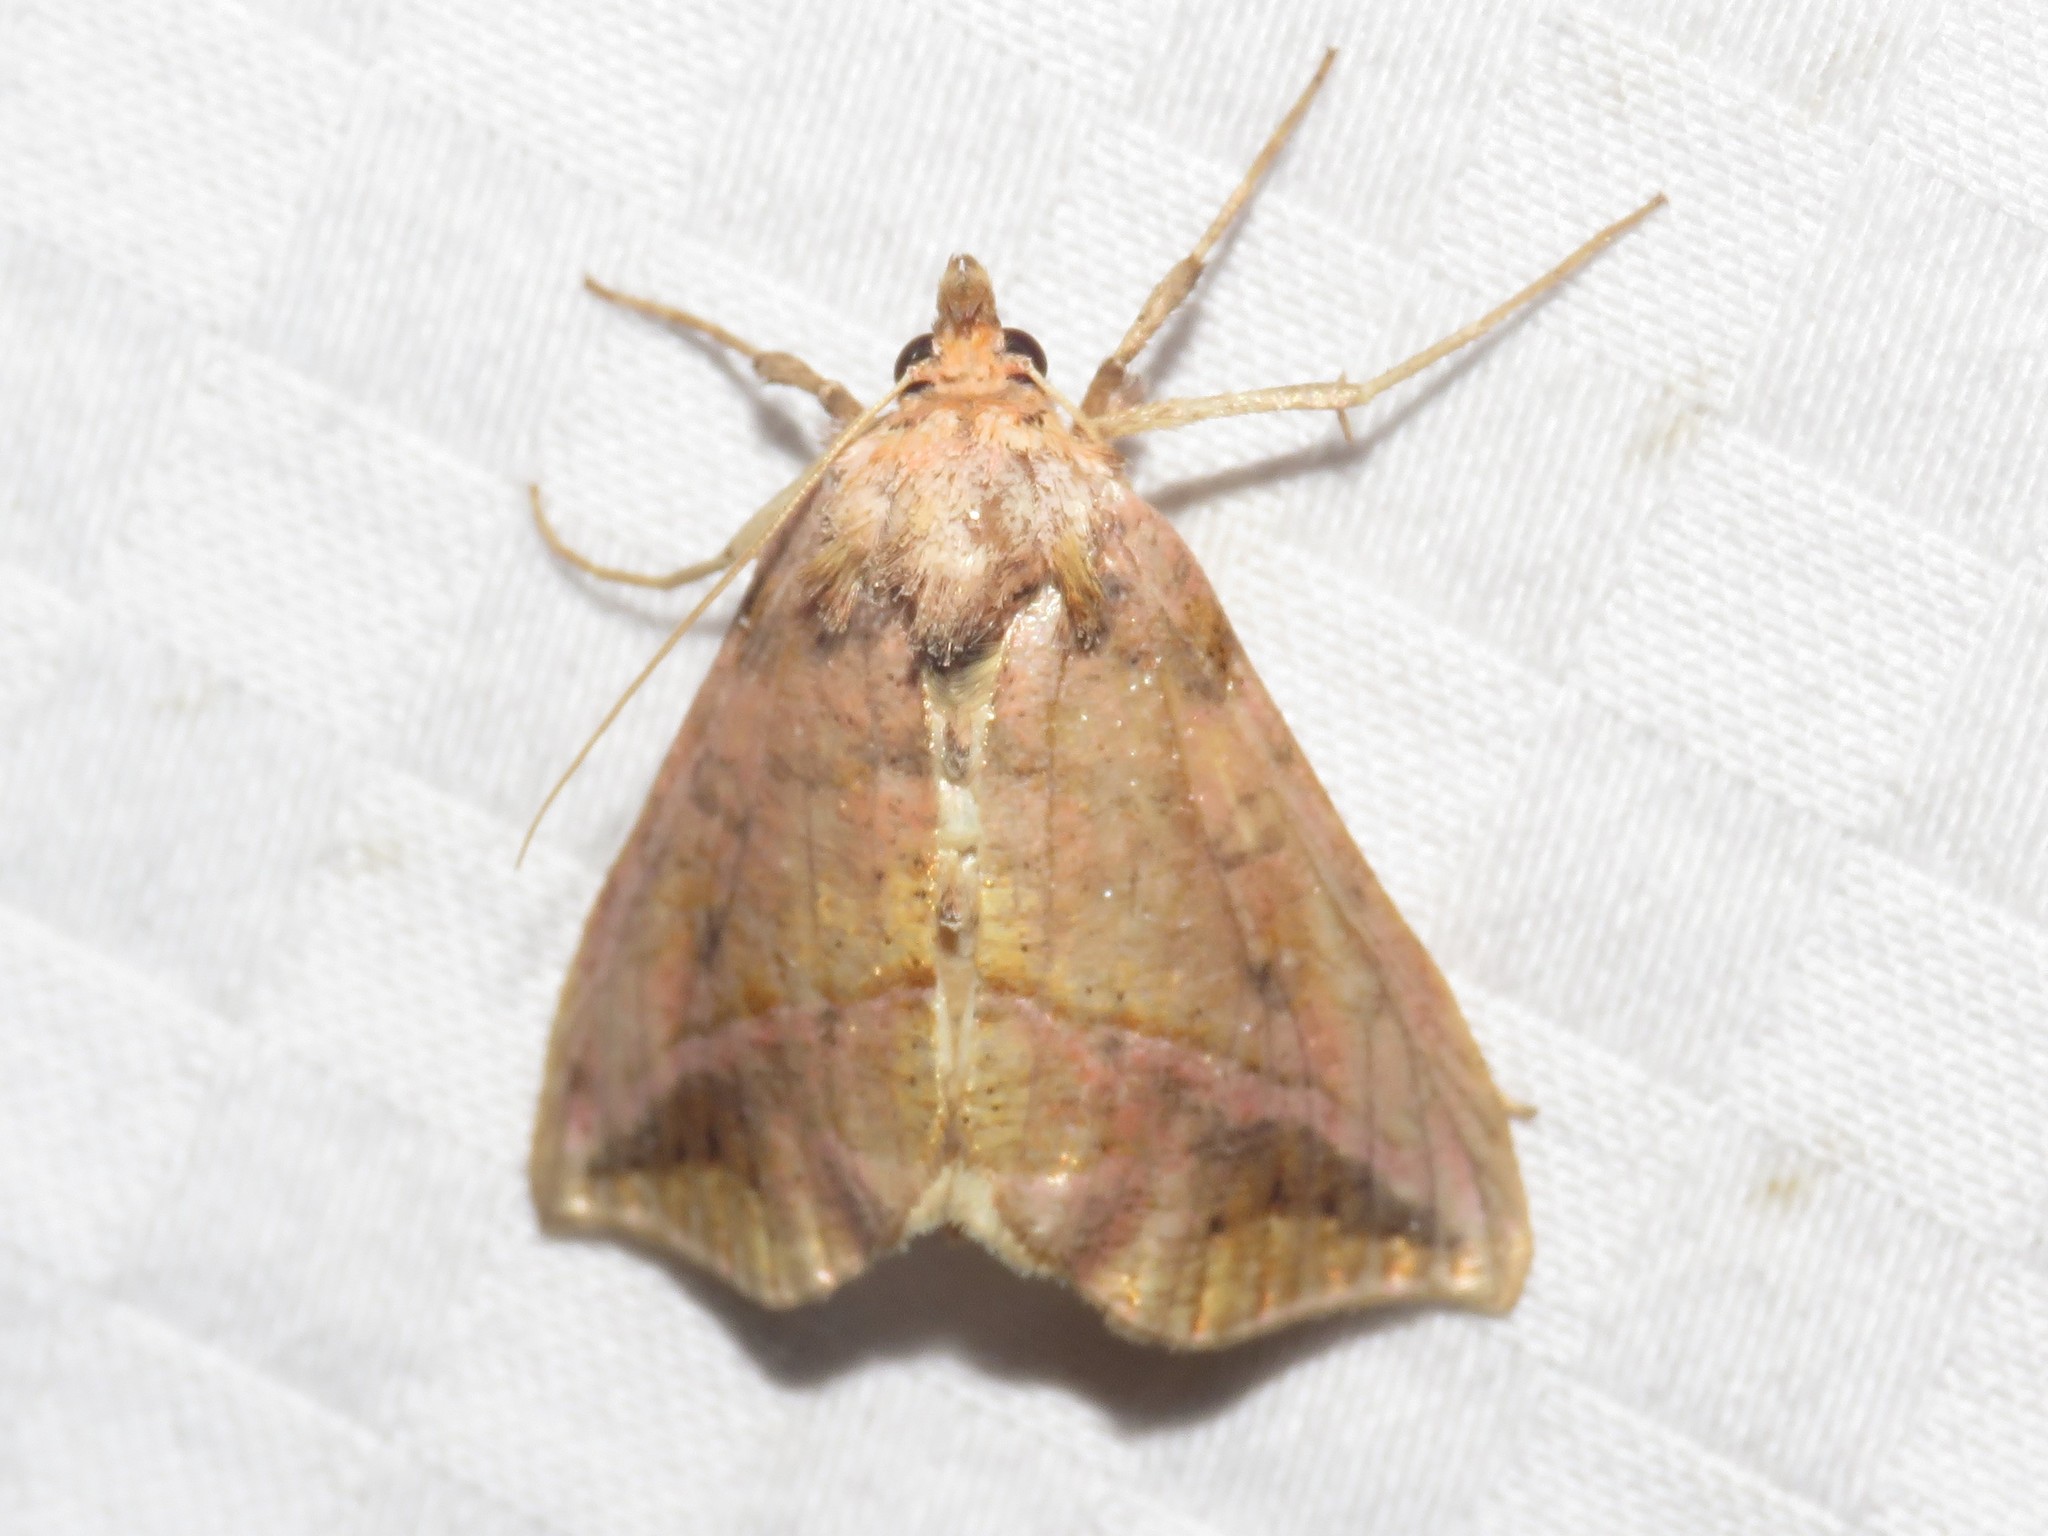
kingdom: Animalia
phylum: Arthropoda
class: Insecta
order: Lepidoptera
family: Noctuidae
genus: Pseudeva
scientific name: Pseudeva purpurigera
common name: Straight-lined looper moth
